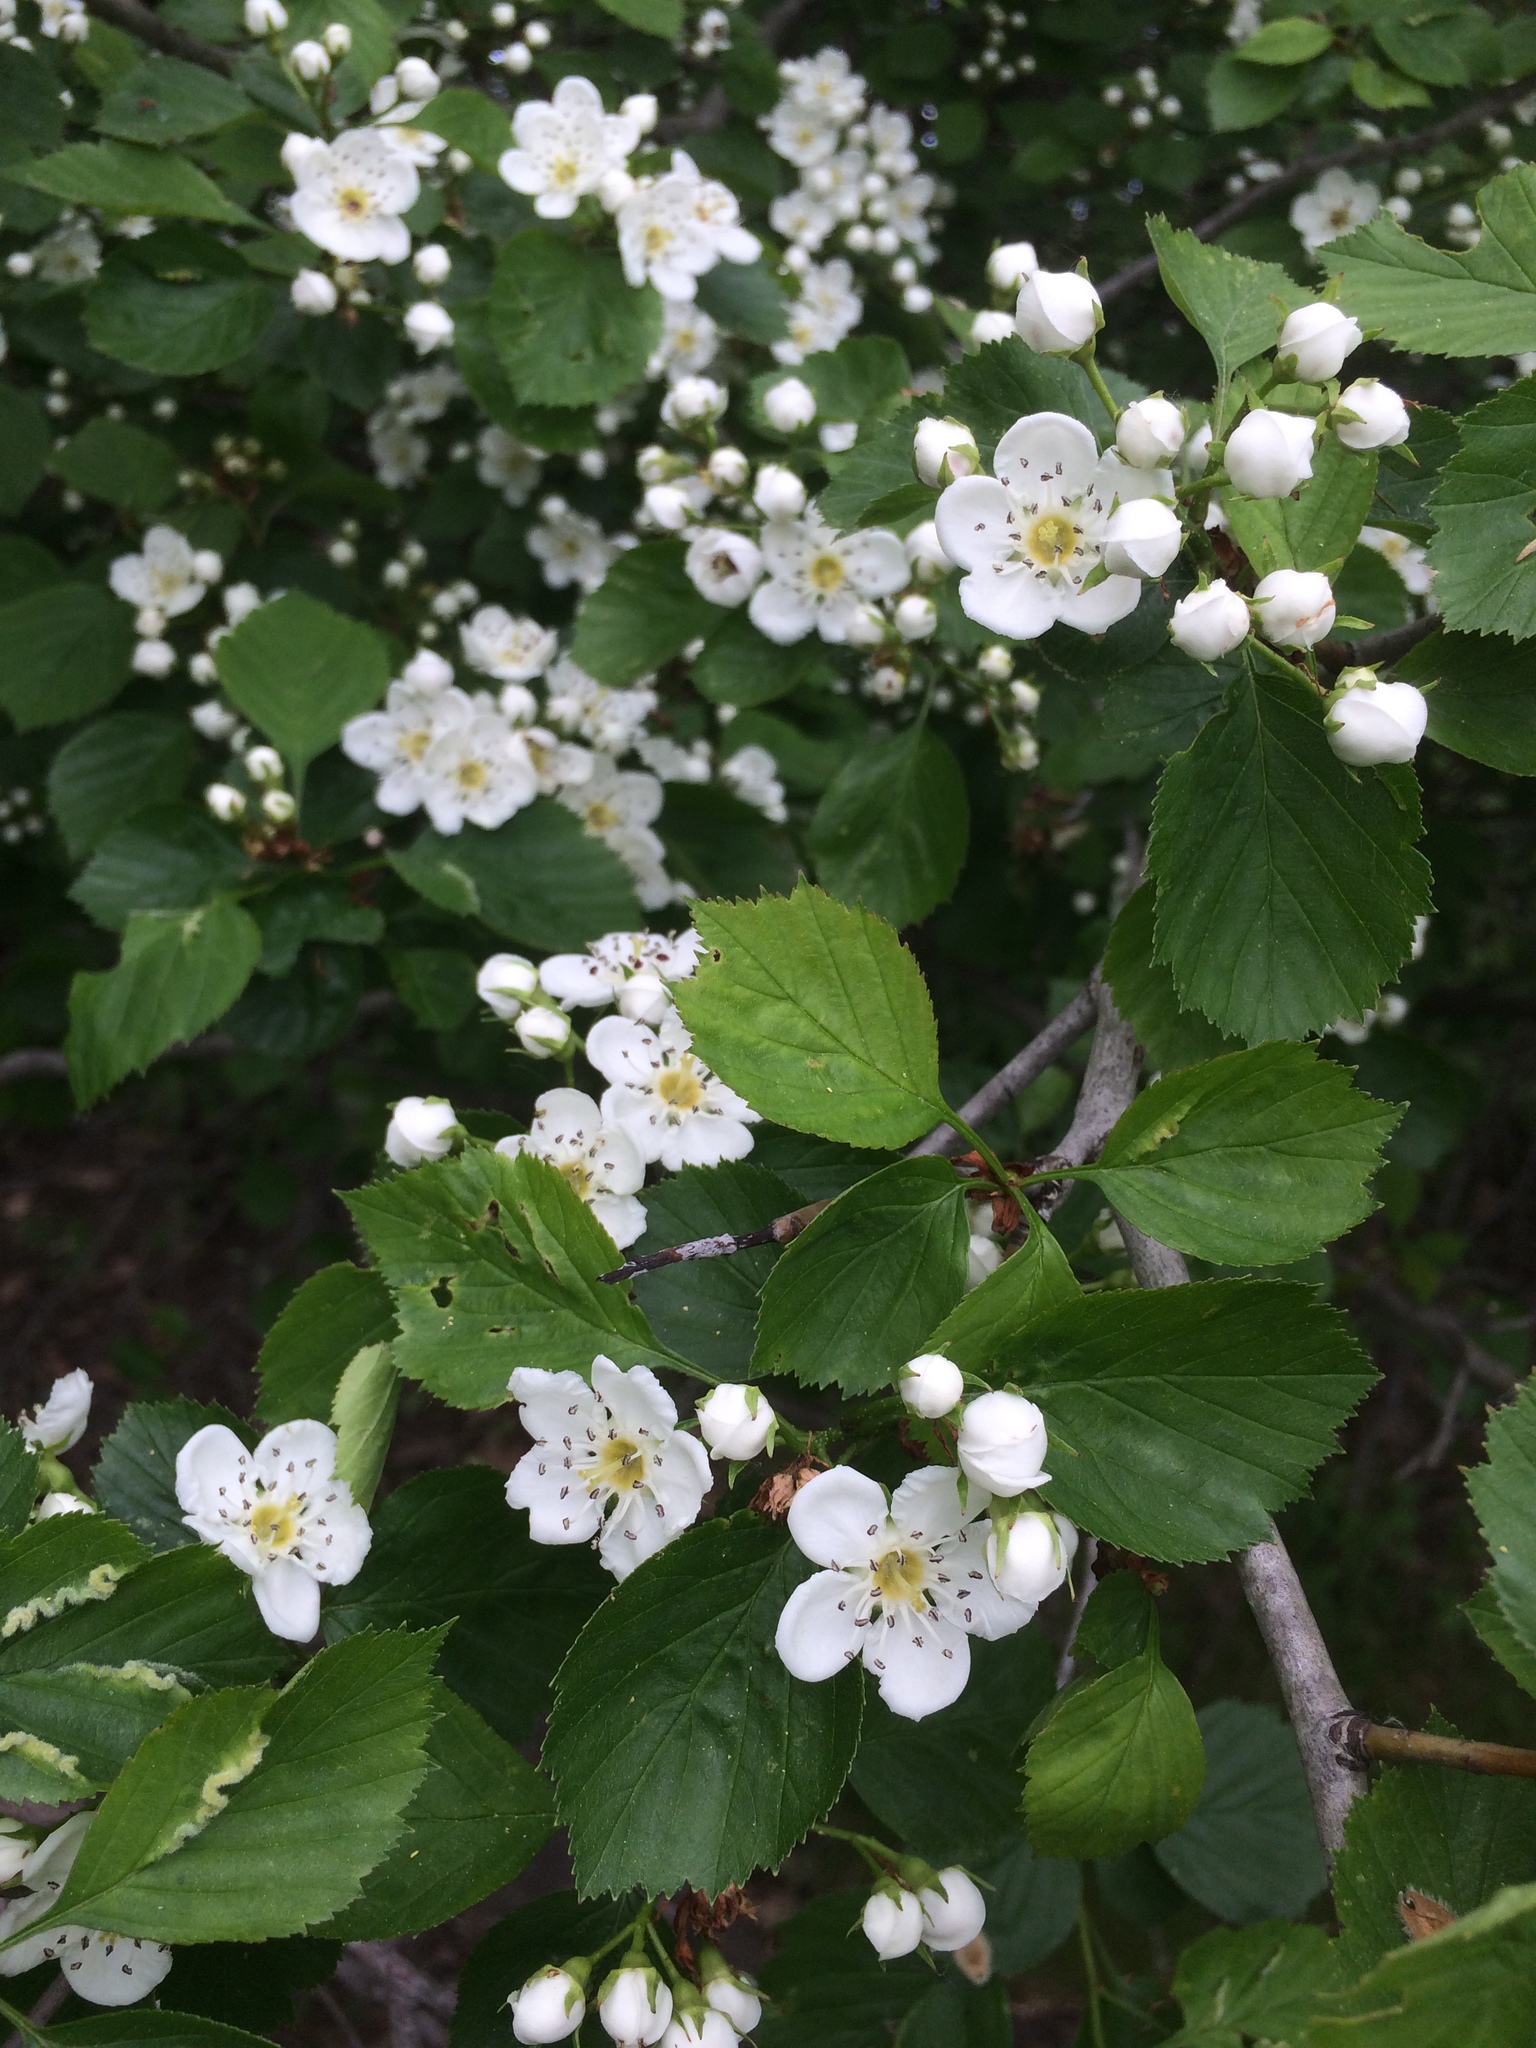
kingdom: Plantae
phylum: Tracheophyta
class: Magnoliopsida
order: Rosales
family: Rosaceae
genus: Crataegus
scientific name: Crataegus suborbiculata
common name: Caughnawaga hawthorn
